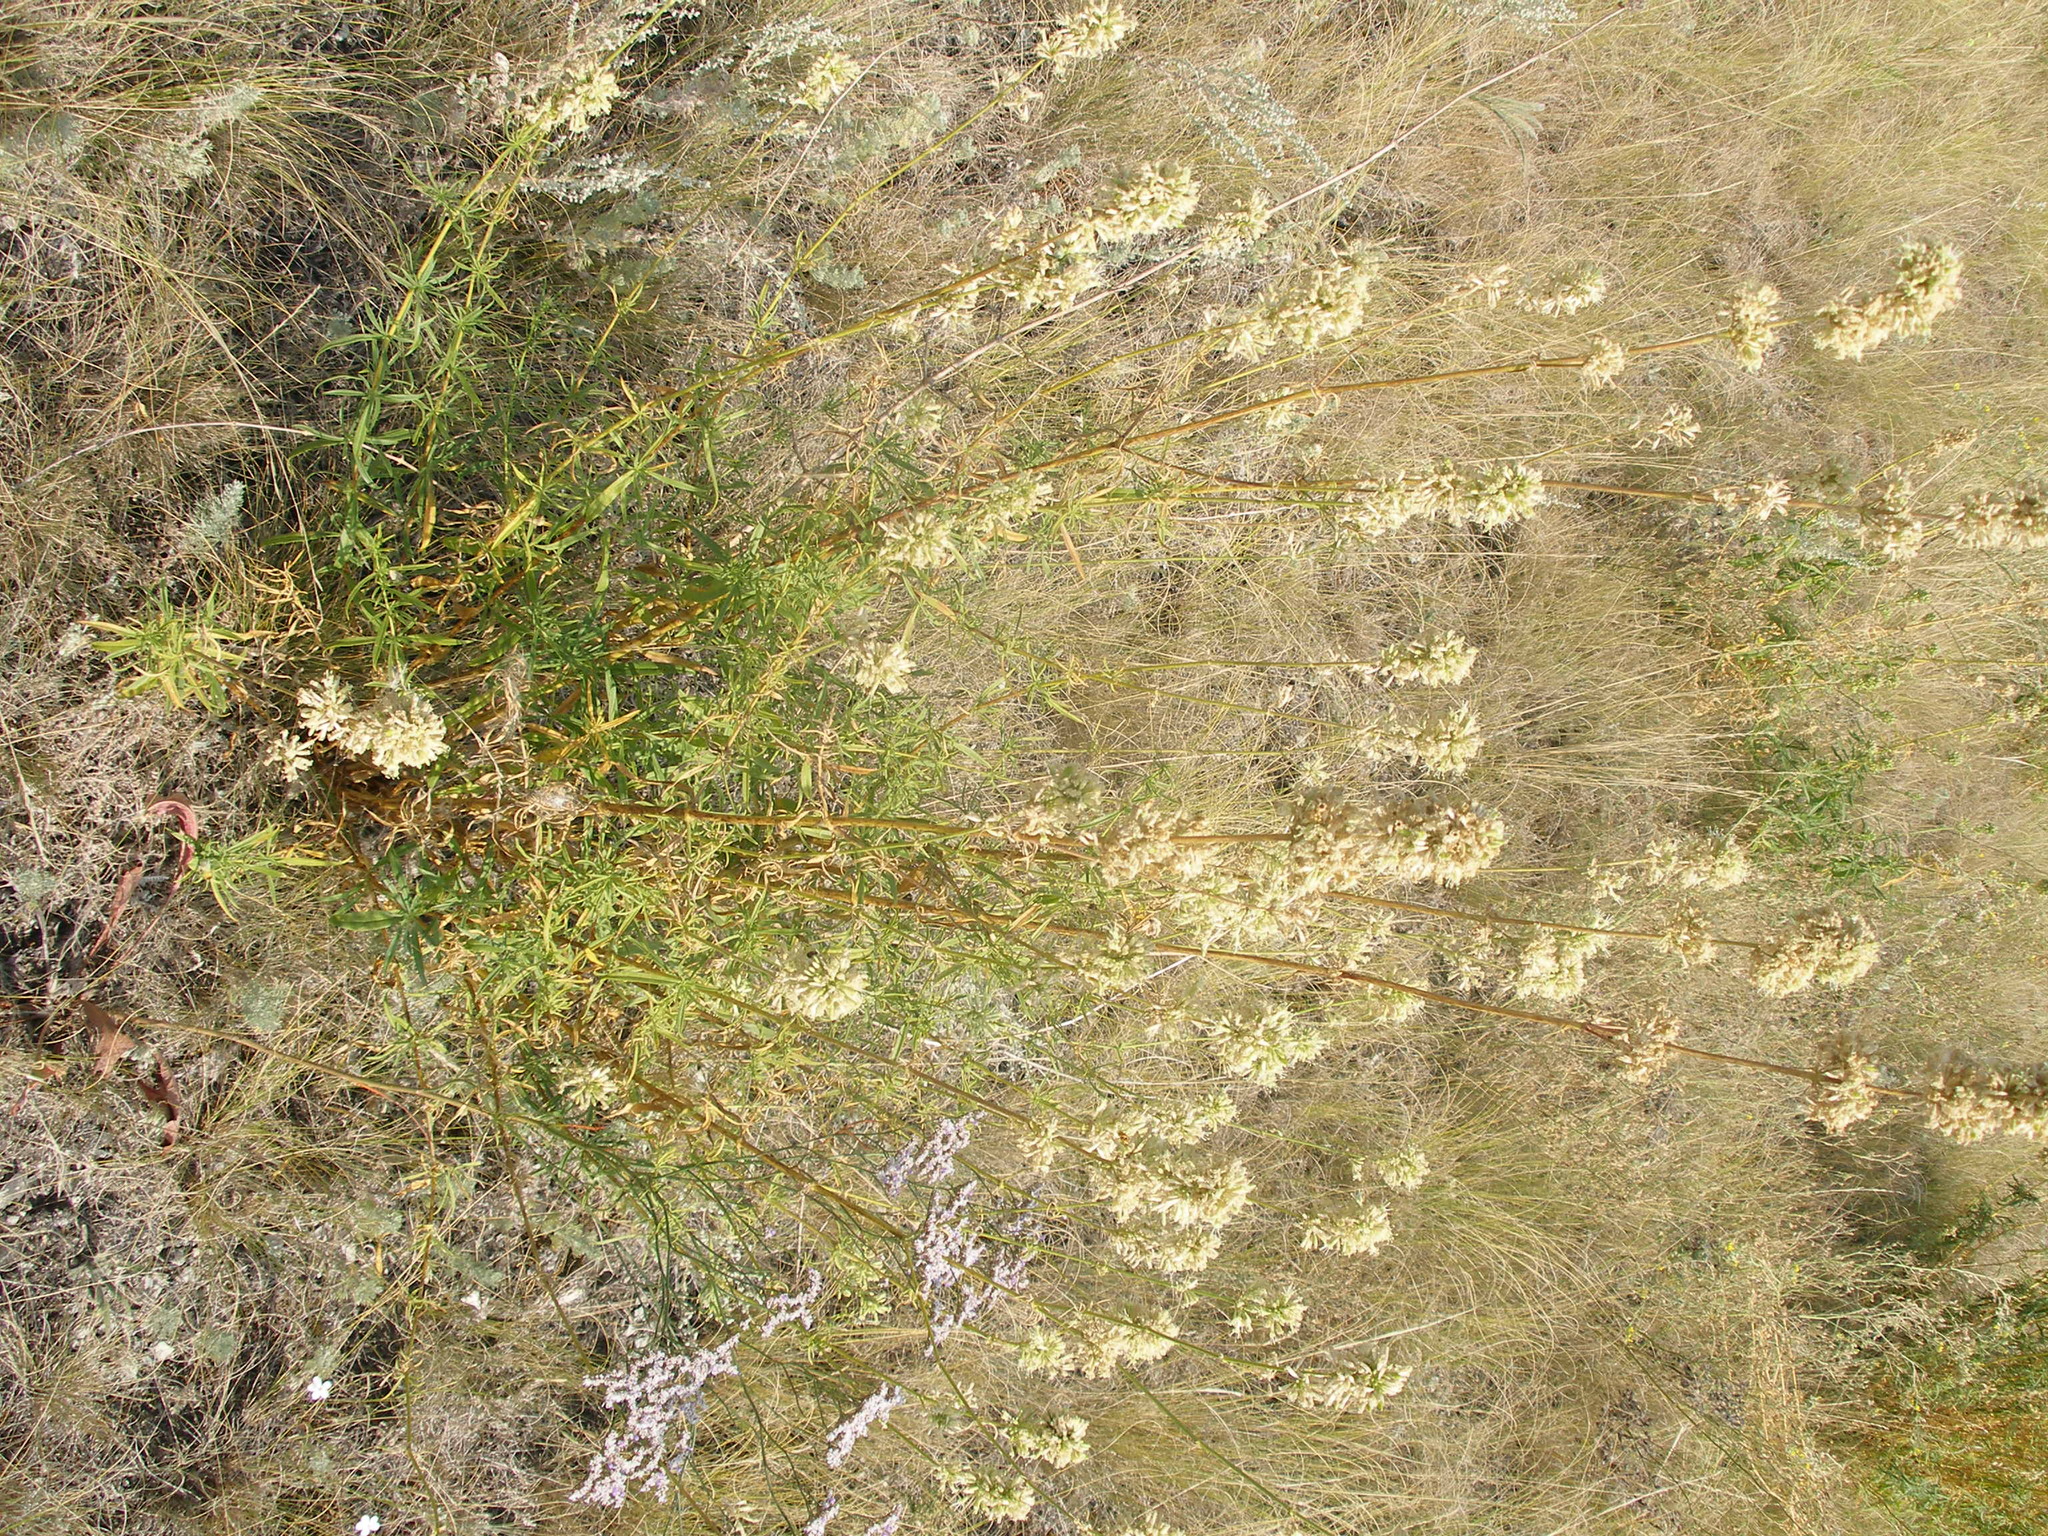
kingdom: Plantae
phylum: Tracheophyta
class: Magnoliopsida
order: Caryophyllales
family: Caryophyllaceae
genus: Silene
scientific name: Silene sibirica
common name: Siberian catchfly
